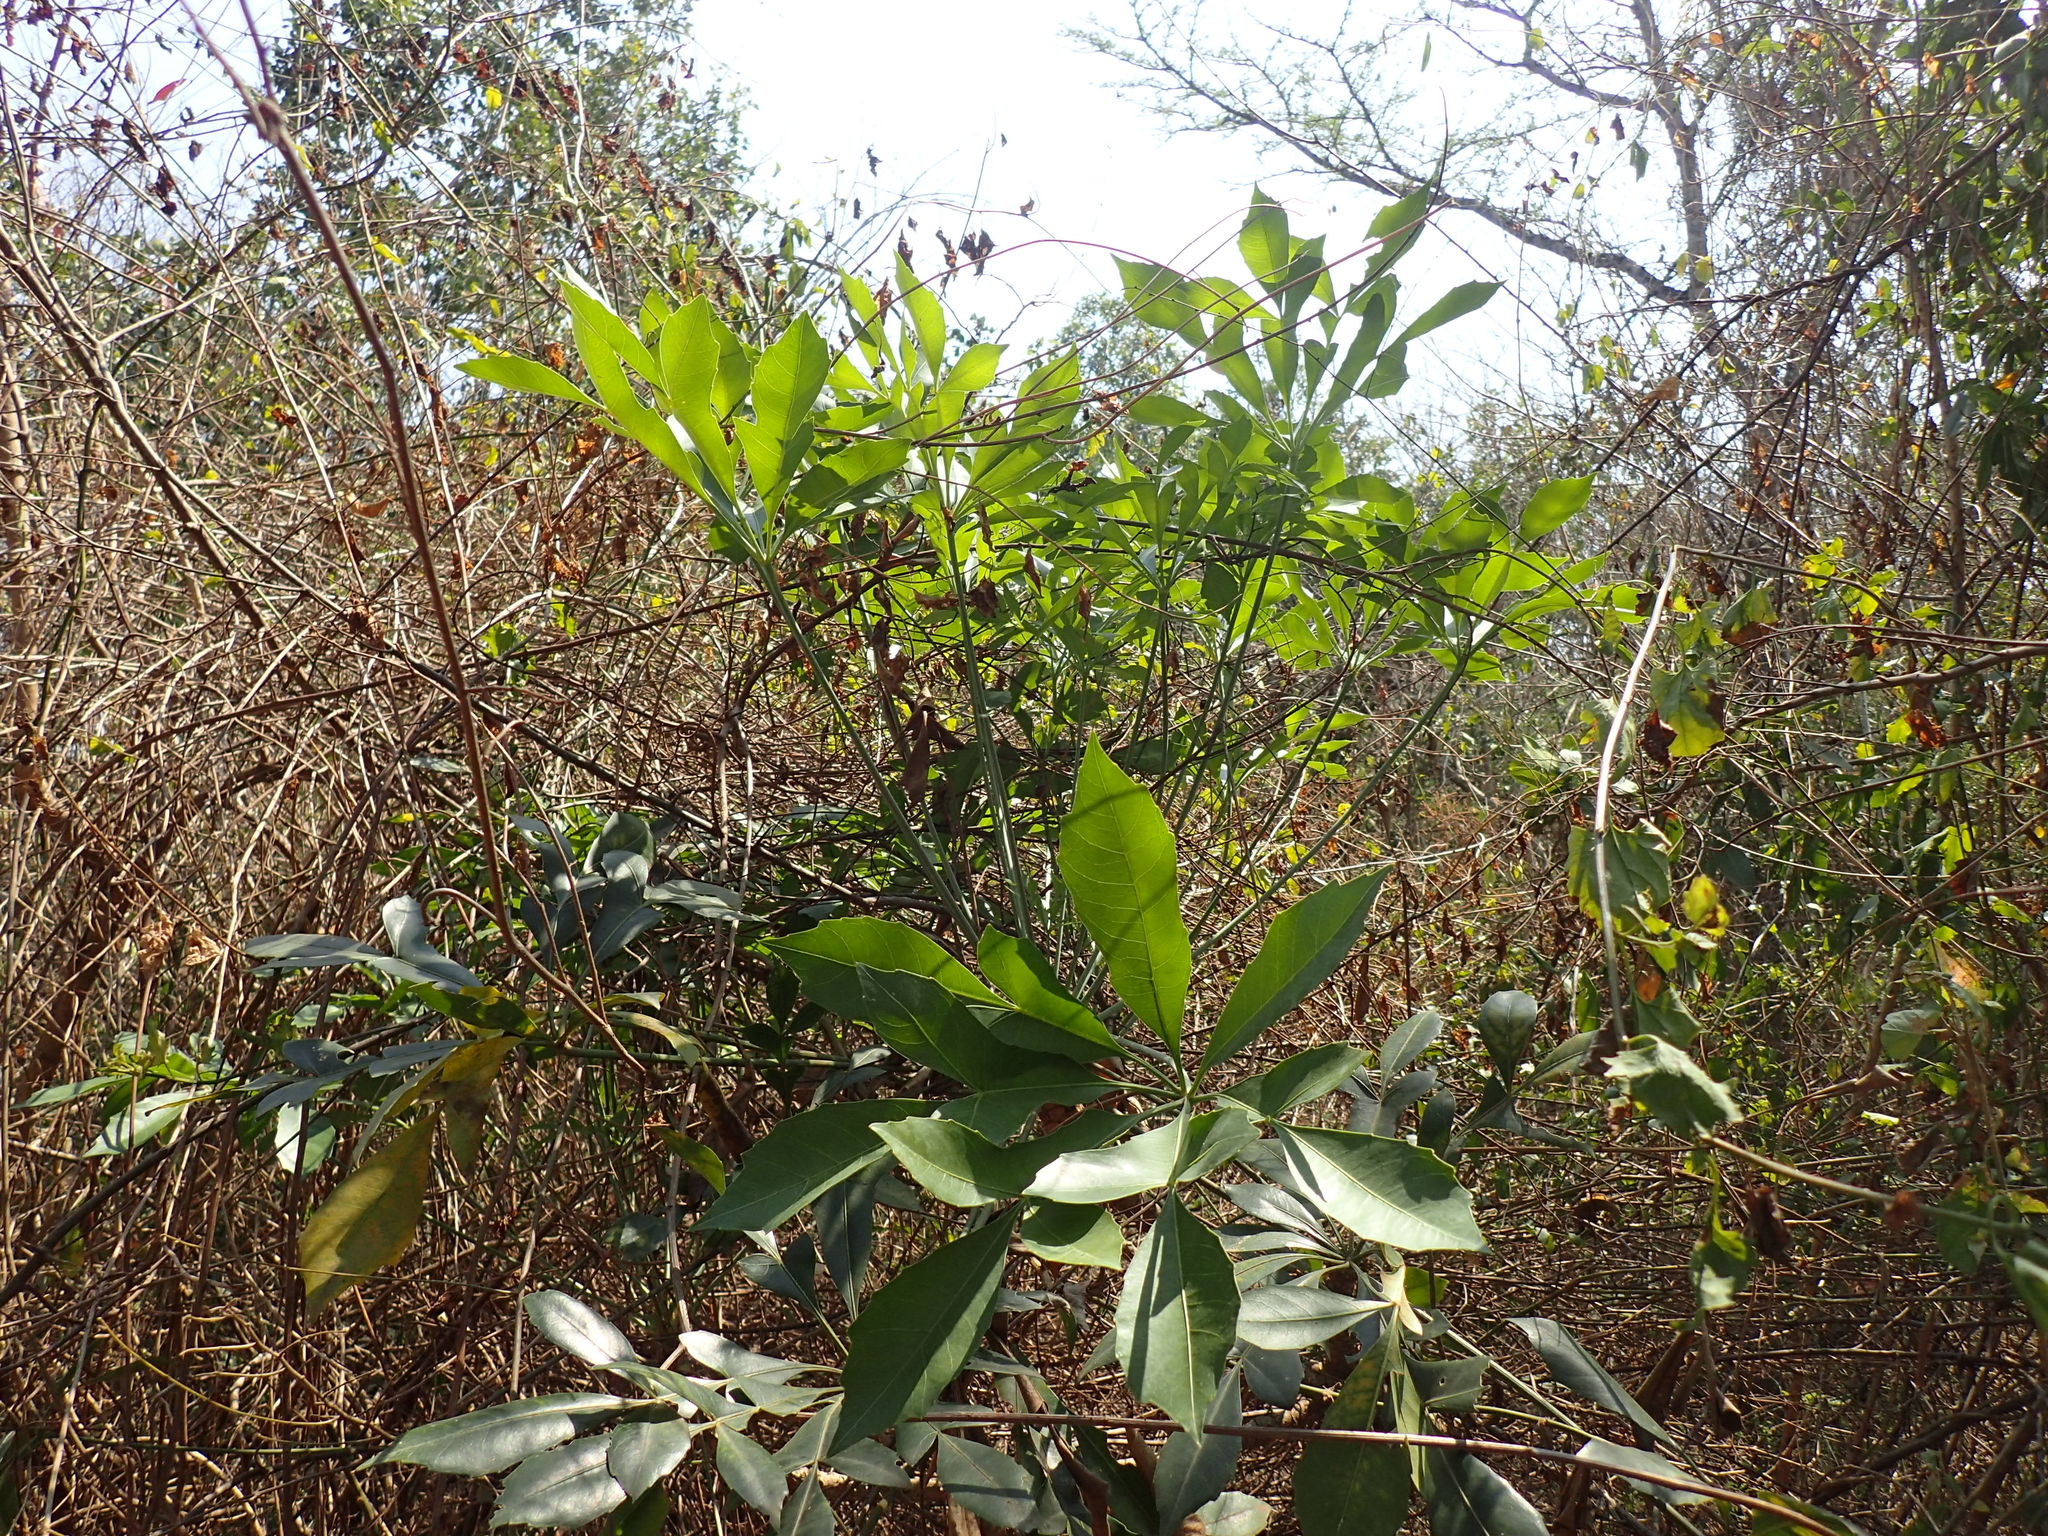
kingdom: Plantae
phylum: Tracheophyta
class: Magnoliopsida
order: Apiales
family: Araliaceae
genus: Cussonia
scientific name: Cussonia nicholsonii
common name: South coast cabbage-tree
